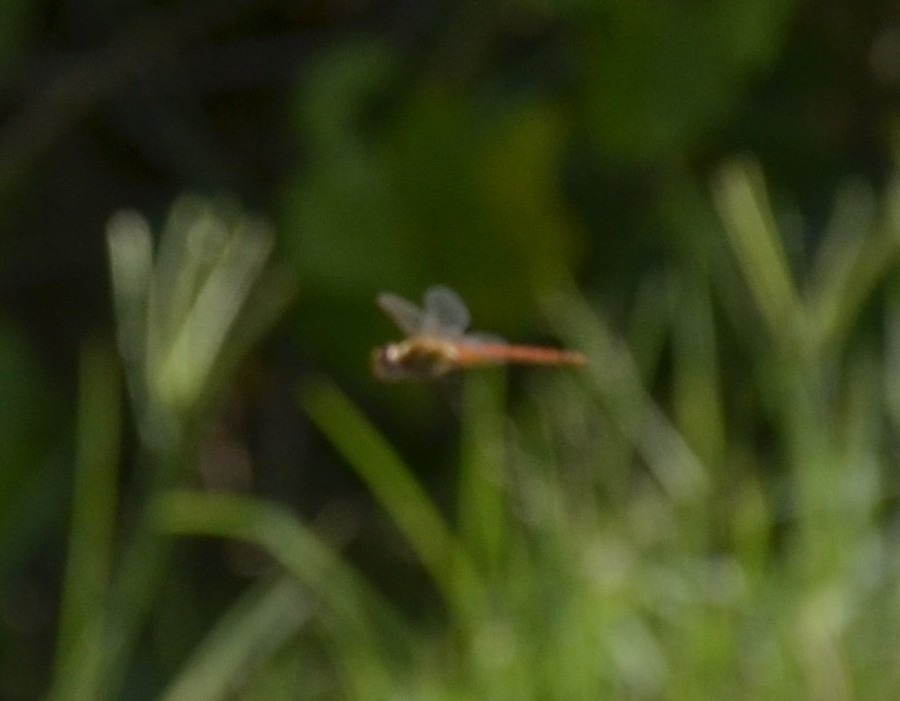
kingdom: Animalia
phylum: Arthropoda
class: Insecta
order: Odonata
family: Libellulidae
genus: Pantala
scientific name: Pantala flavescens
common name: Wandering glider
